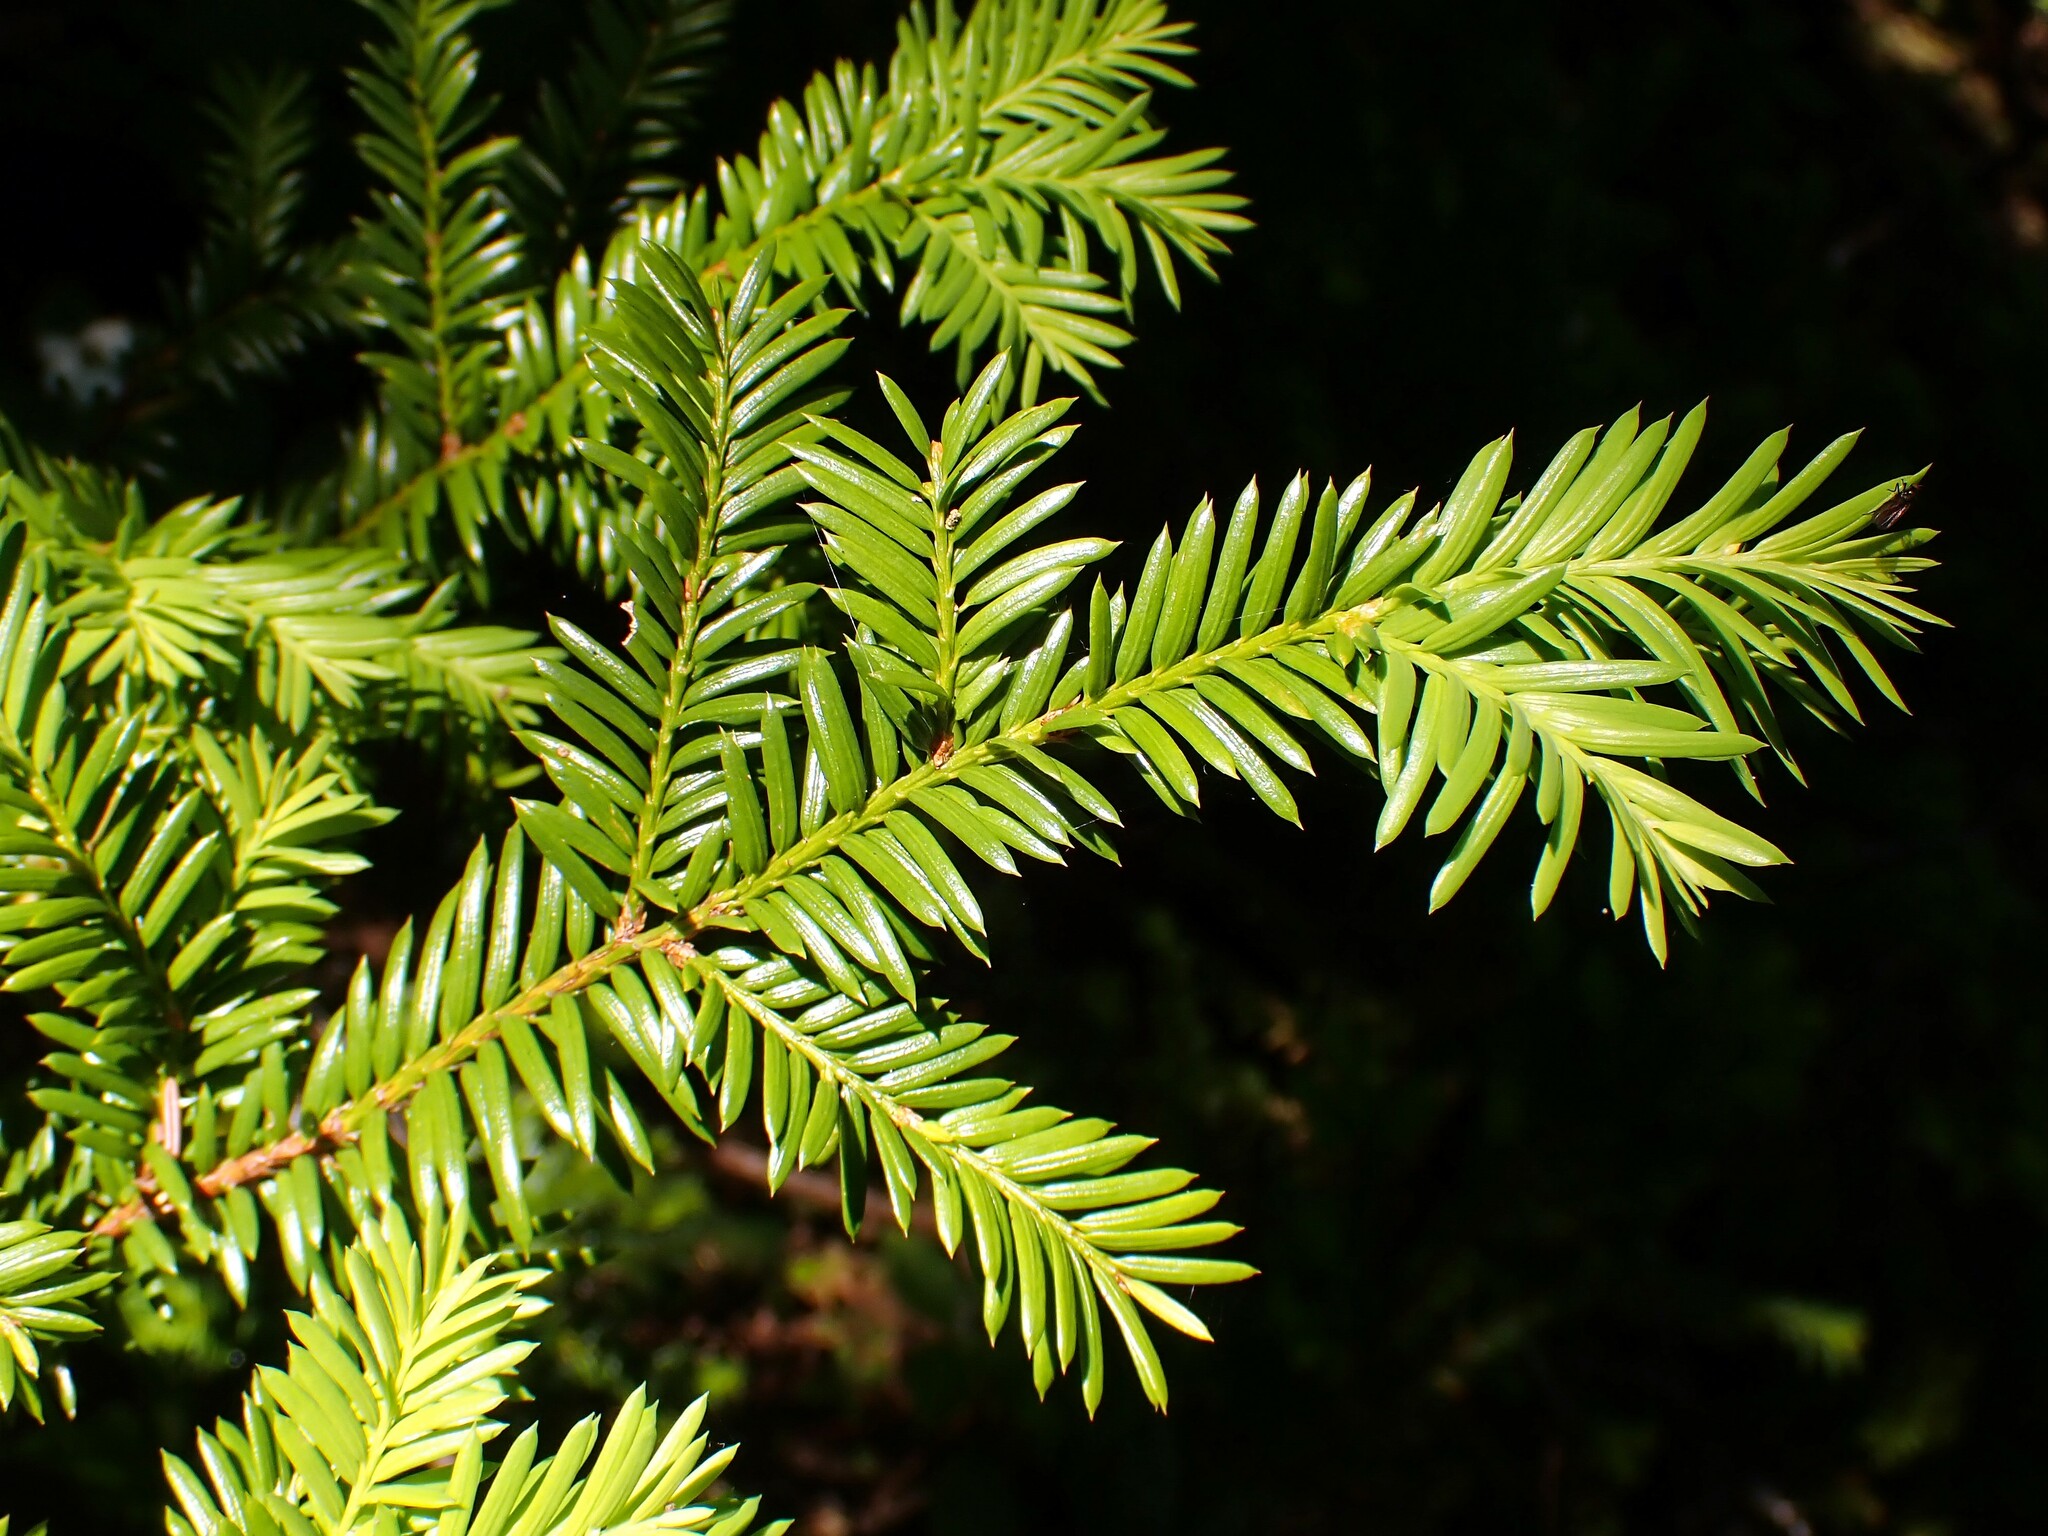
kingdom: Plantae
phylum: Tracheophyta
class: Pinopsida
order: Pinales
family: Taxaceae
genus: Taxus
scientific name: Taxus canadensis
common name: American yew
